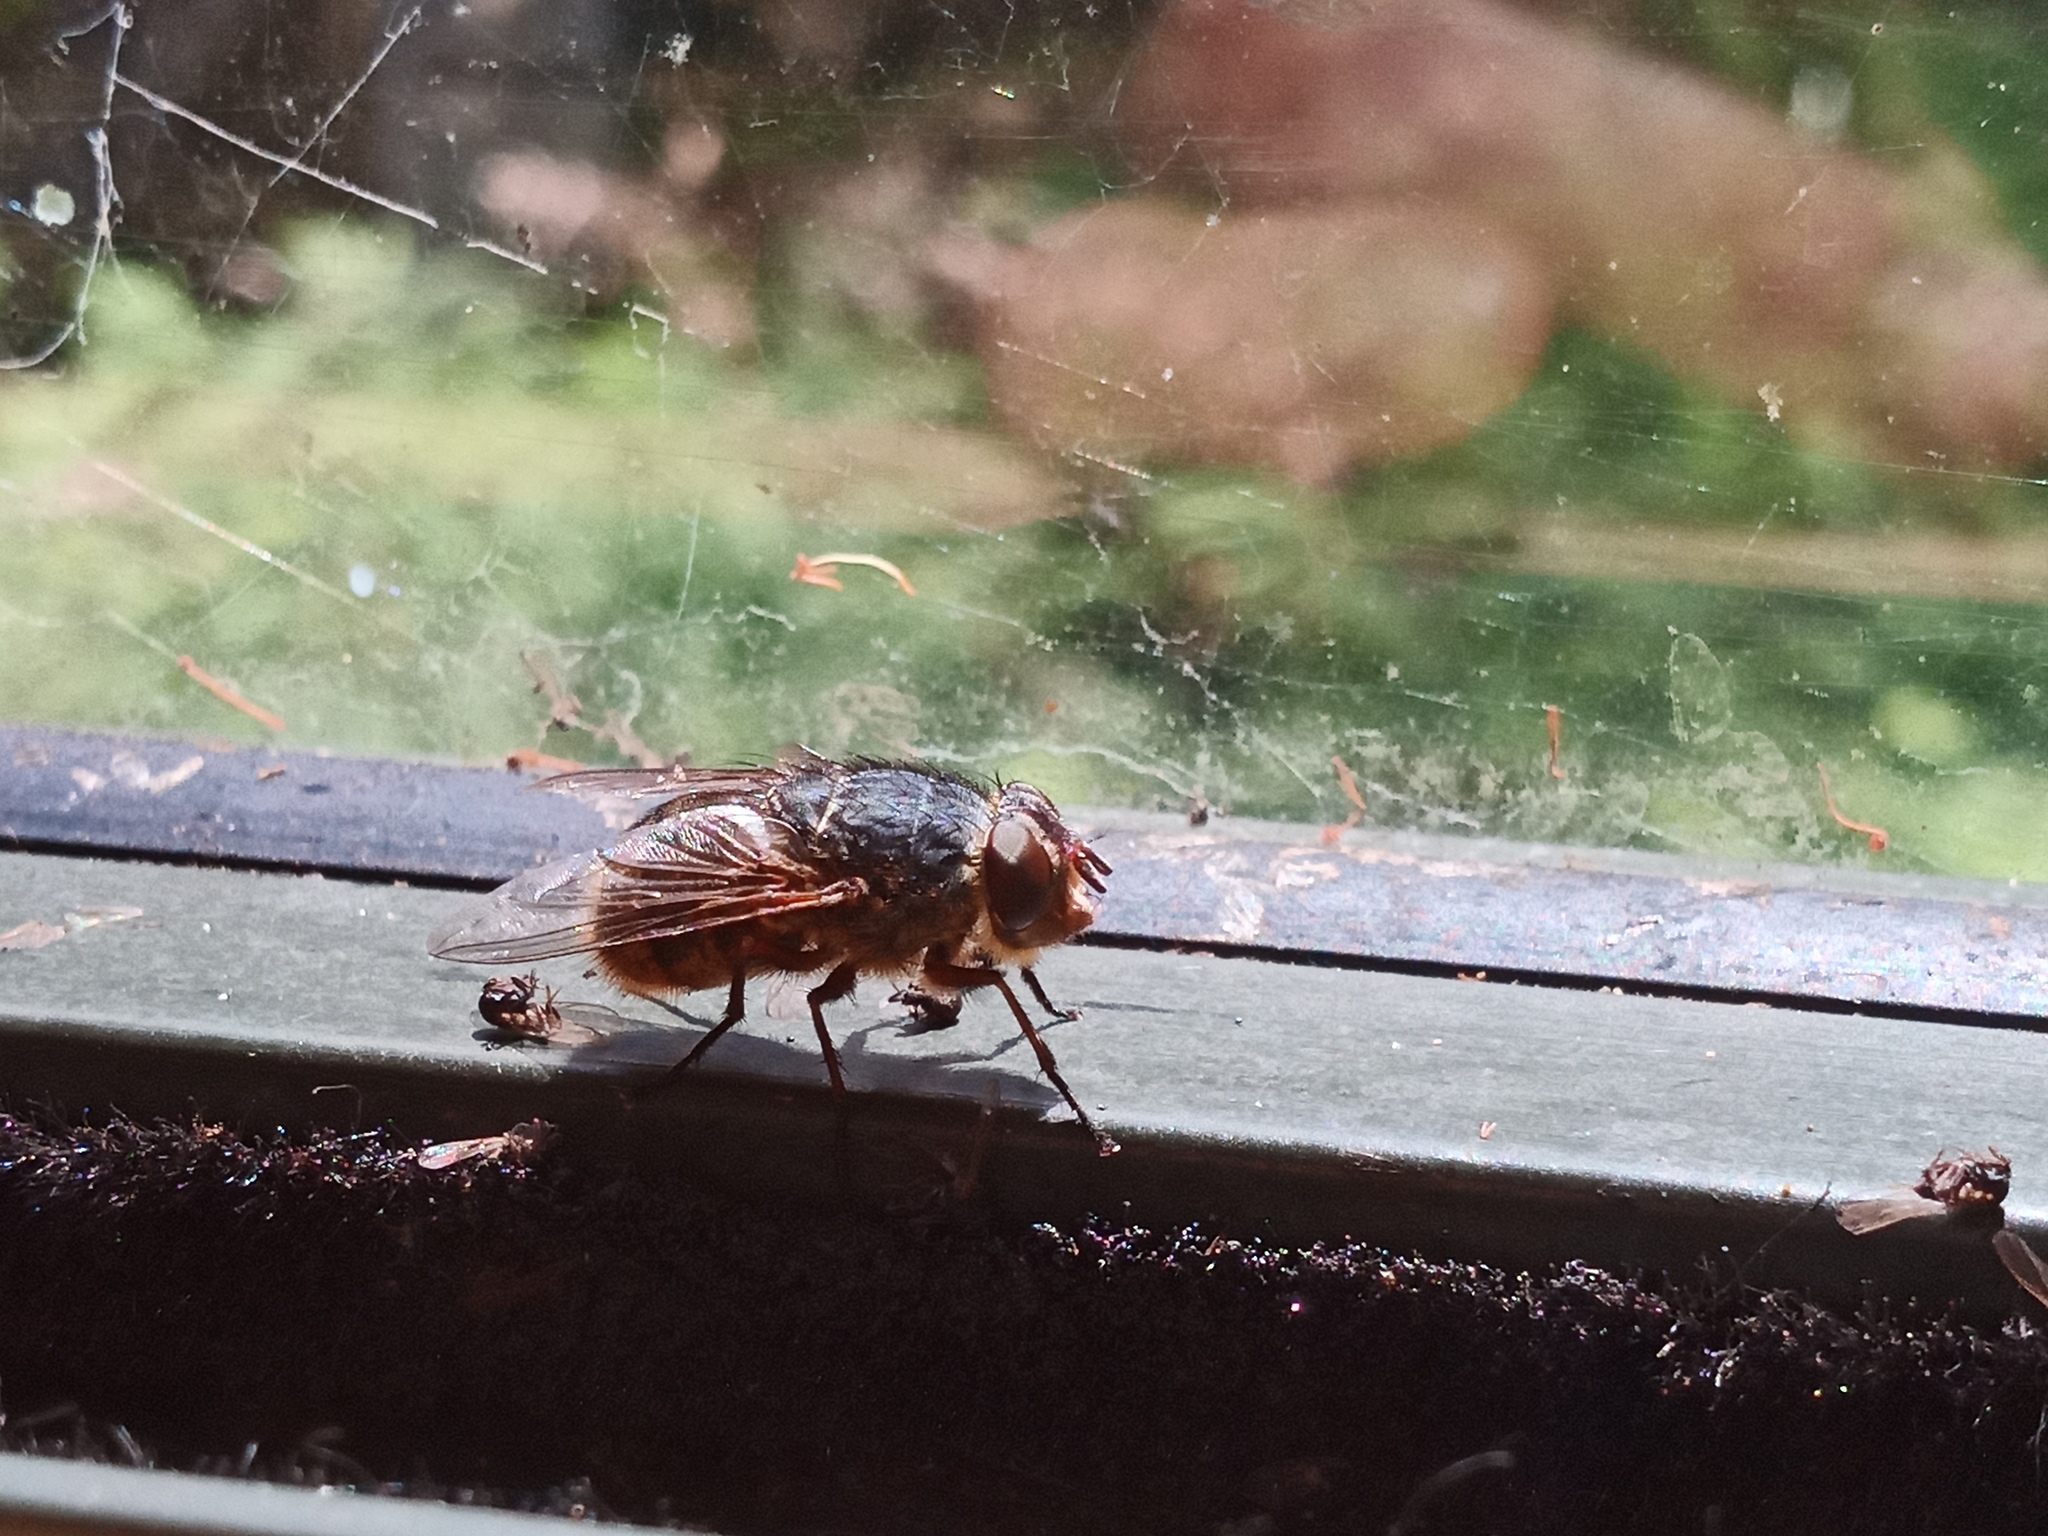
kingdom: Animalia
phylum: Arthropoda
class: Insecta
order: Diptera
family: Calliphoridae
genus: Calliphora
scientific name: Calliphora stygia
